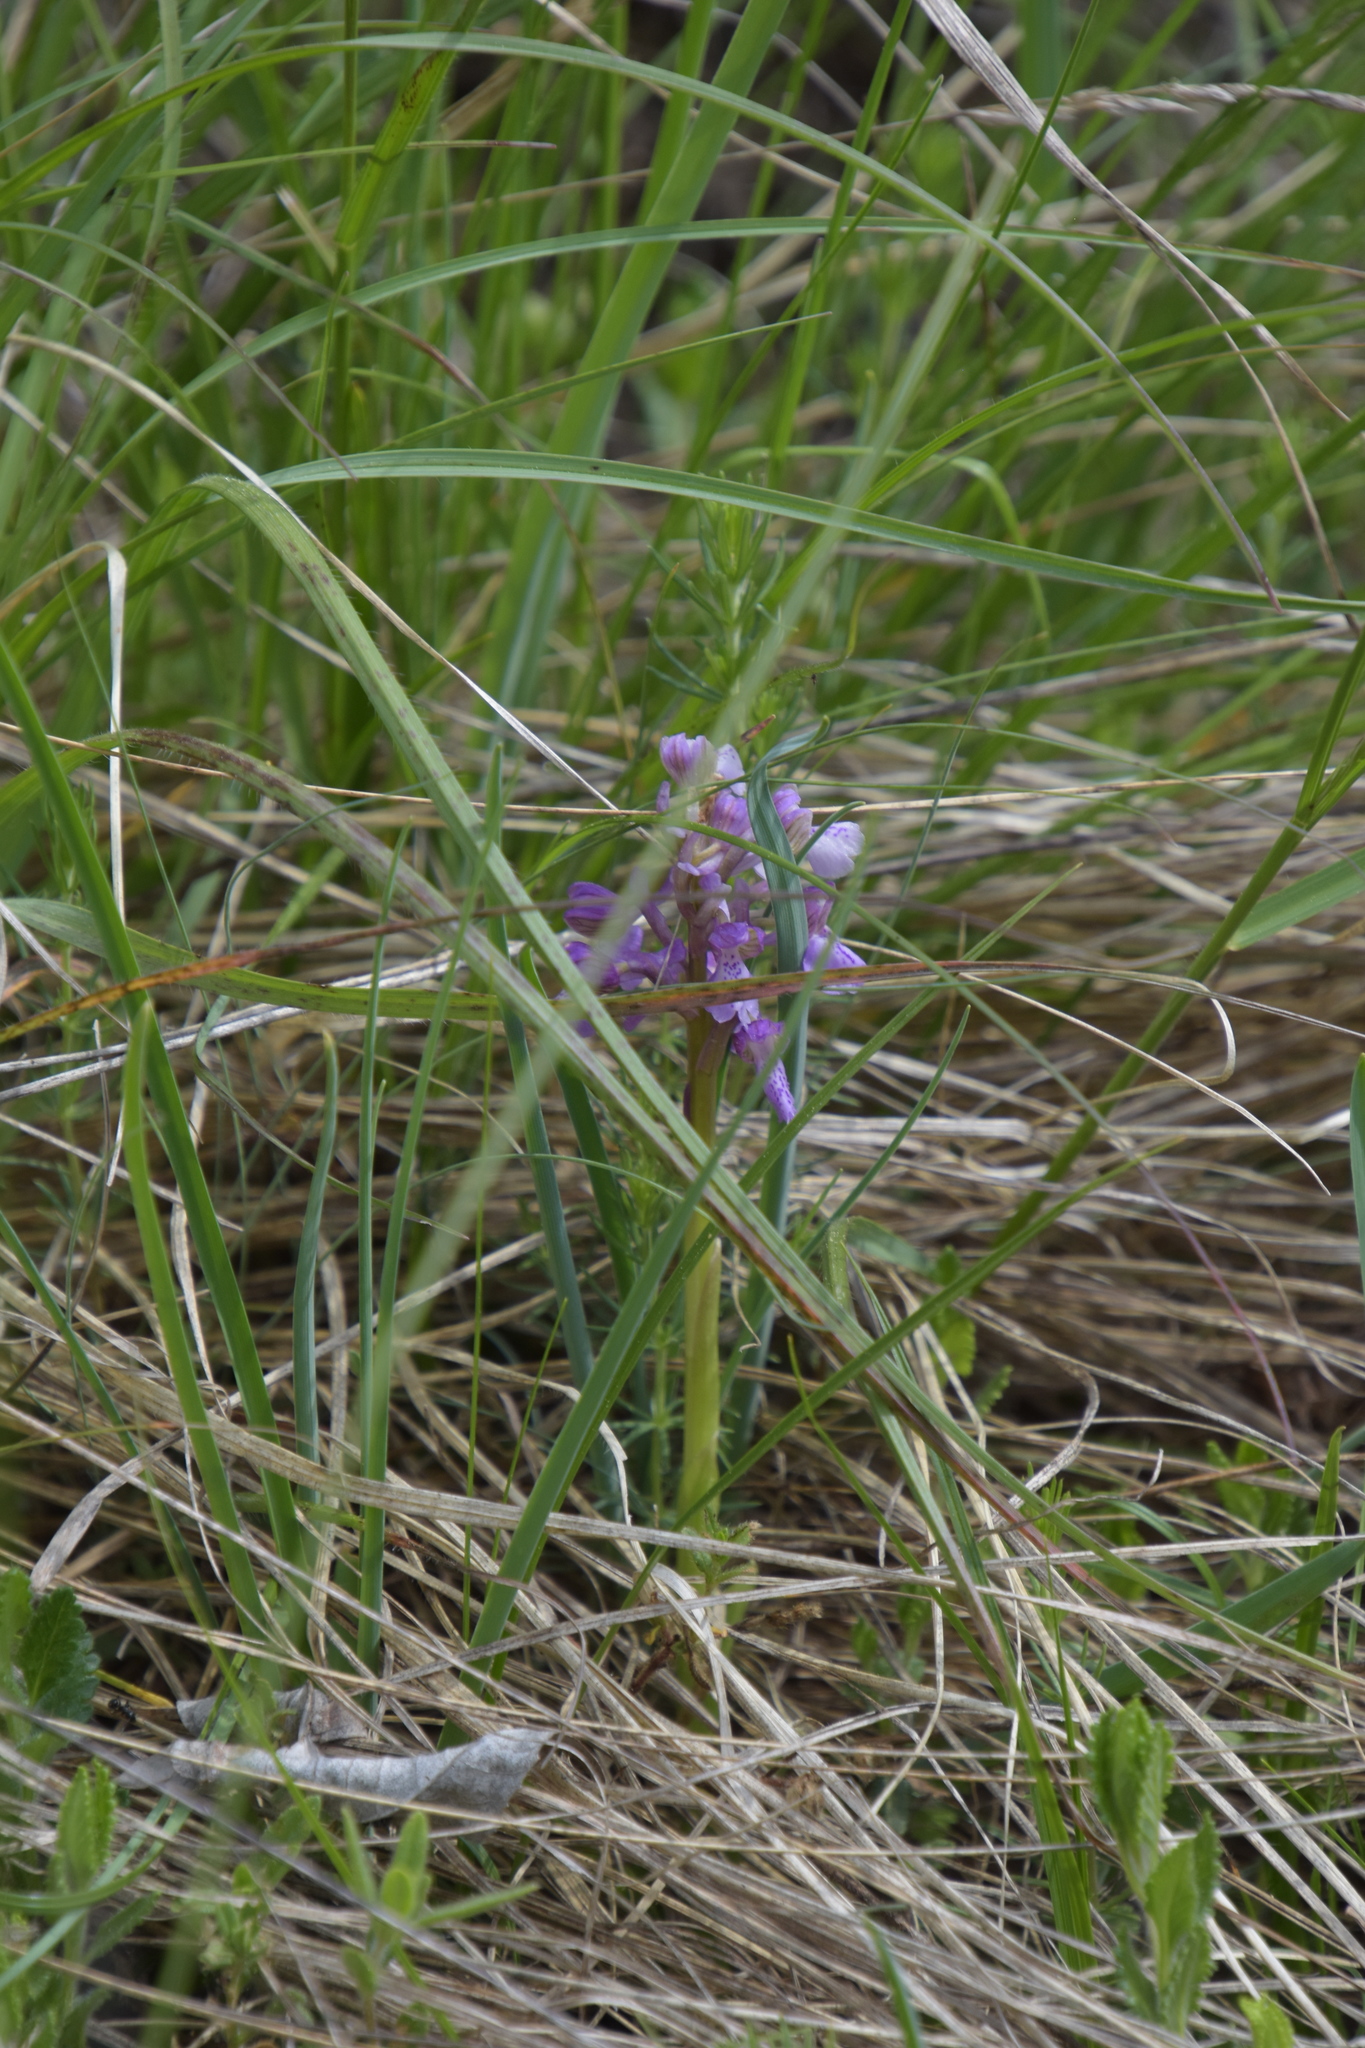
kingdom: Plantae
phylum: Tracheophyta
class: Liliopsida
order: Asparagales
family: Orchidaceae
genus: Anacamptis
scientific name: Anacamptis morio
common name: Green-winged orchid
